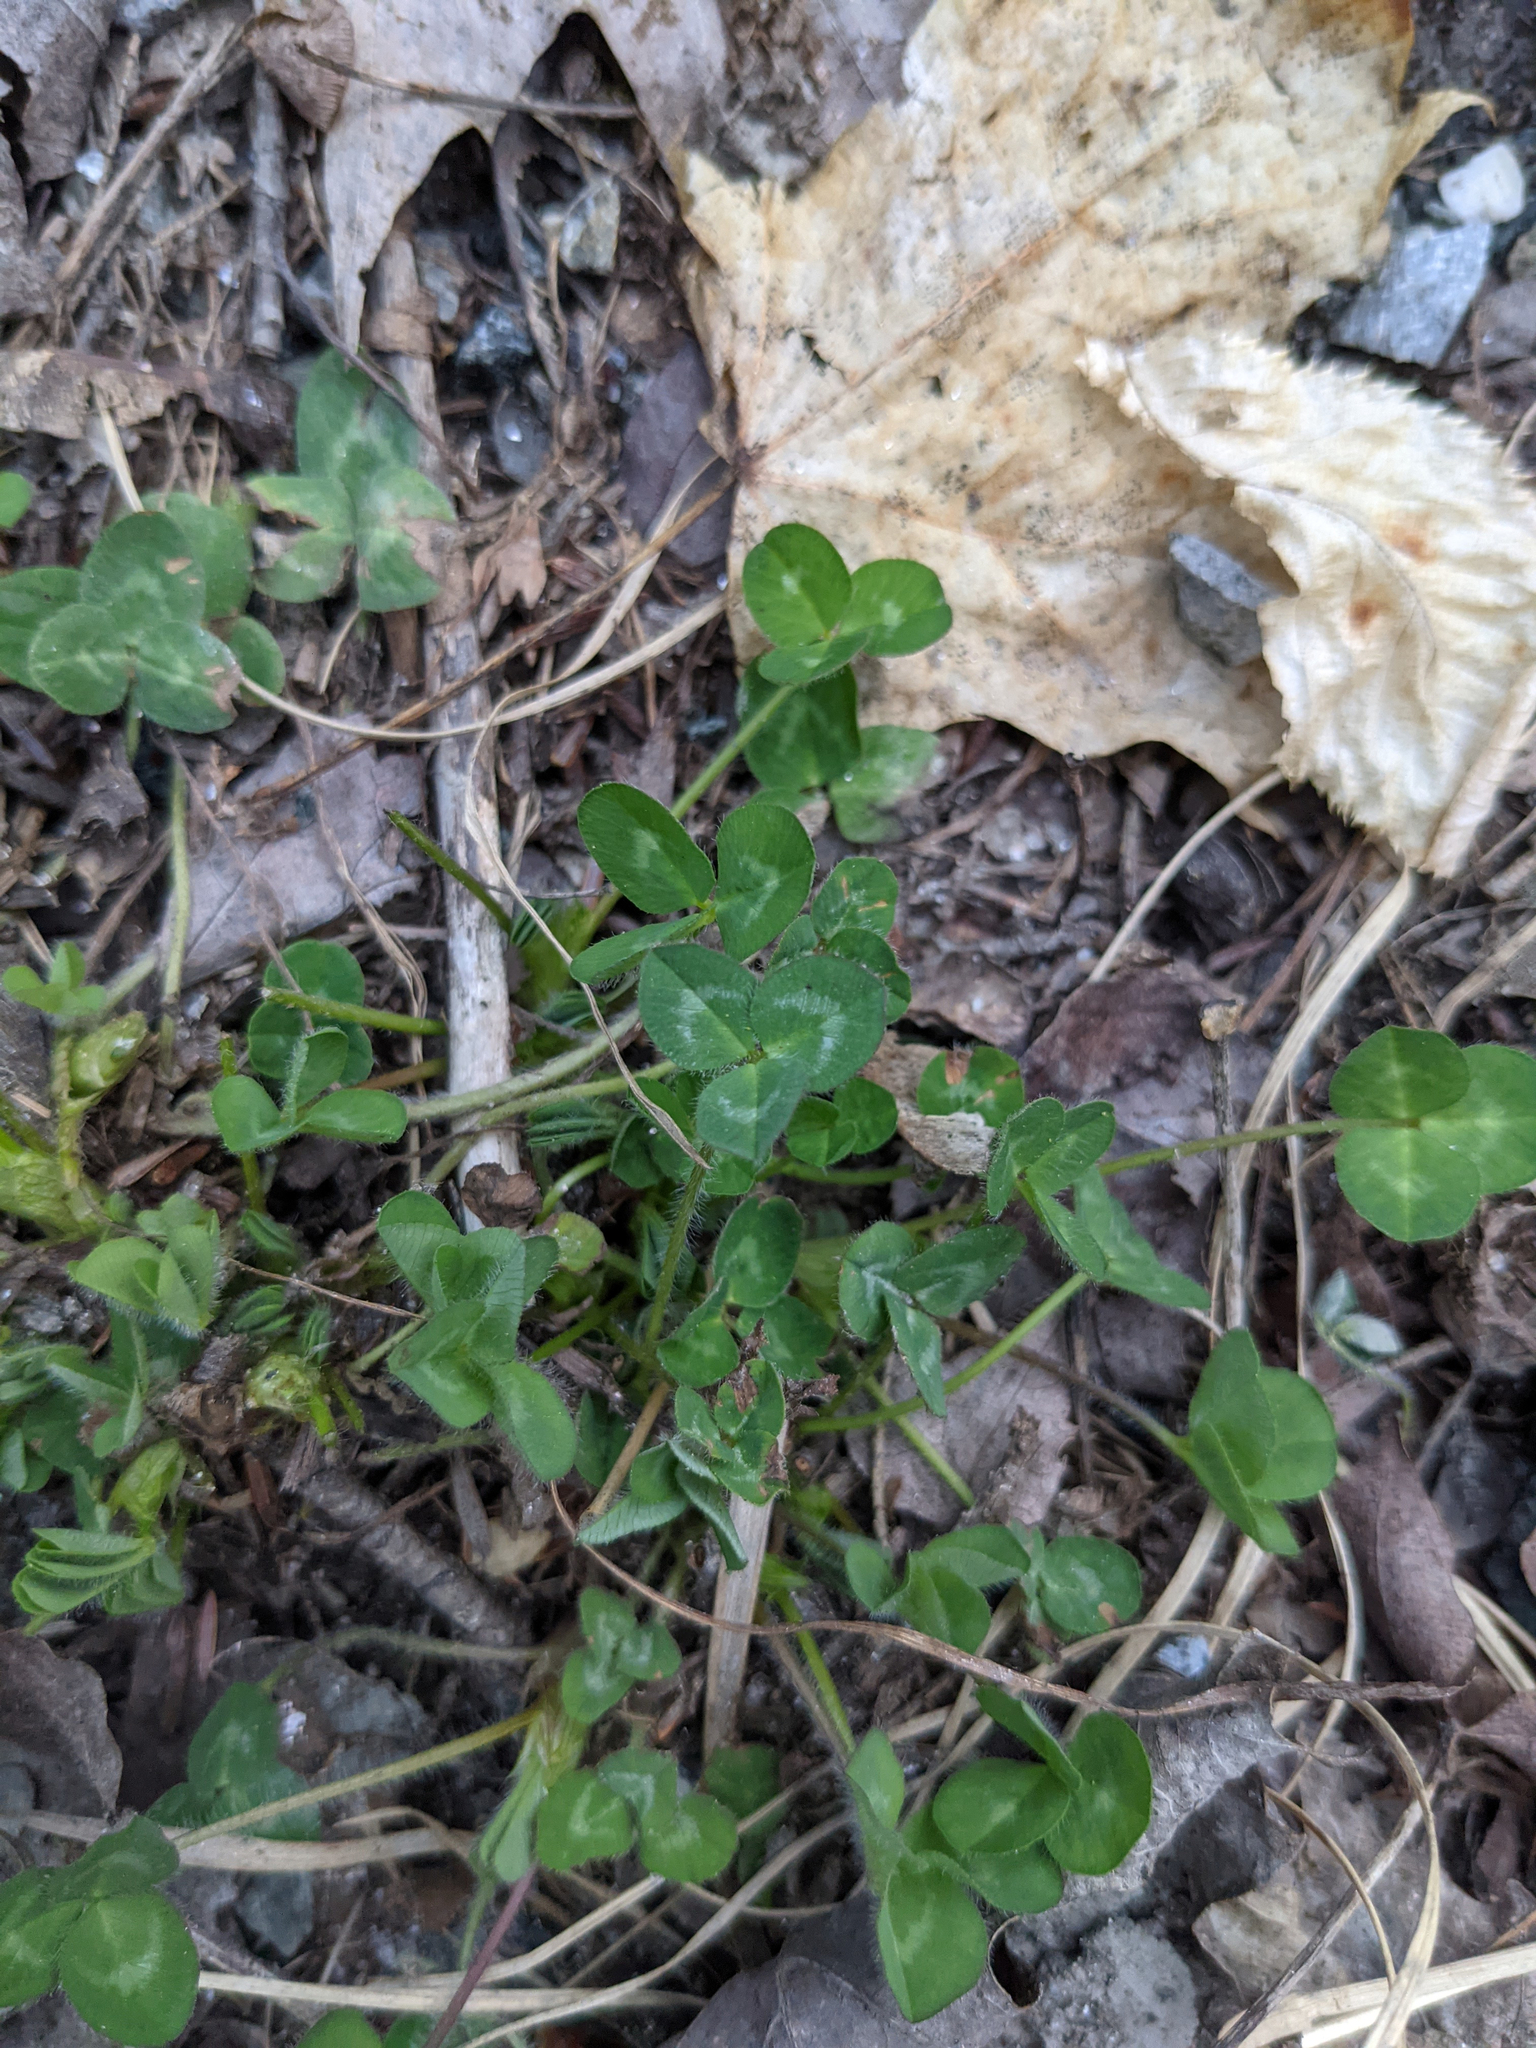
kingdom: Plantae
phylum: Tracheophyta
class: Magnoliopsida
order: Fabales
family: Fabaceae
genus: Trifolium
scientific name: Trifolium pratense
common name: Red clover
